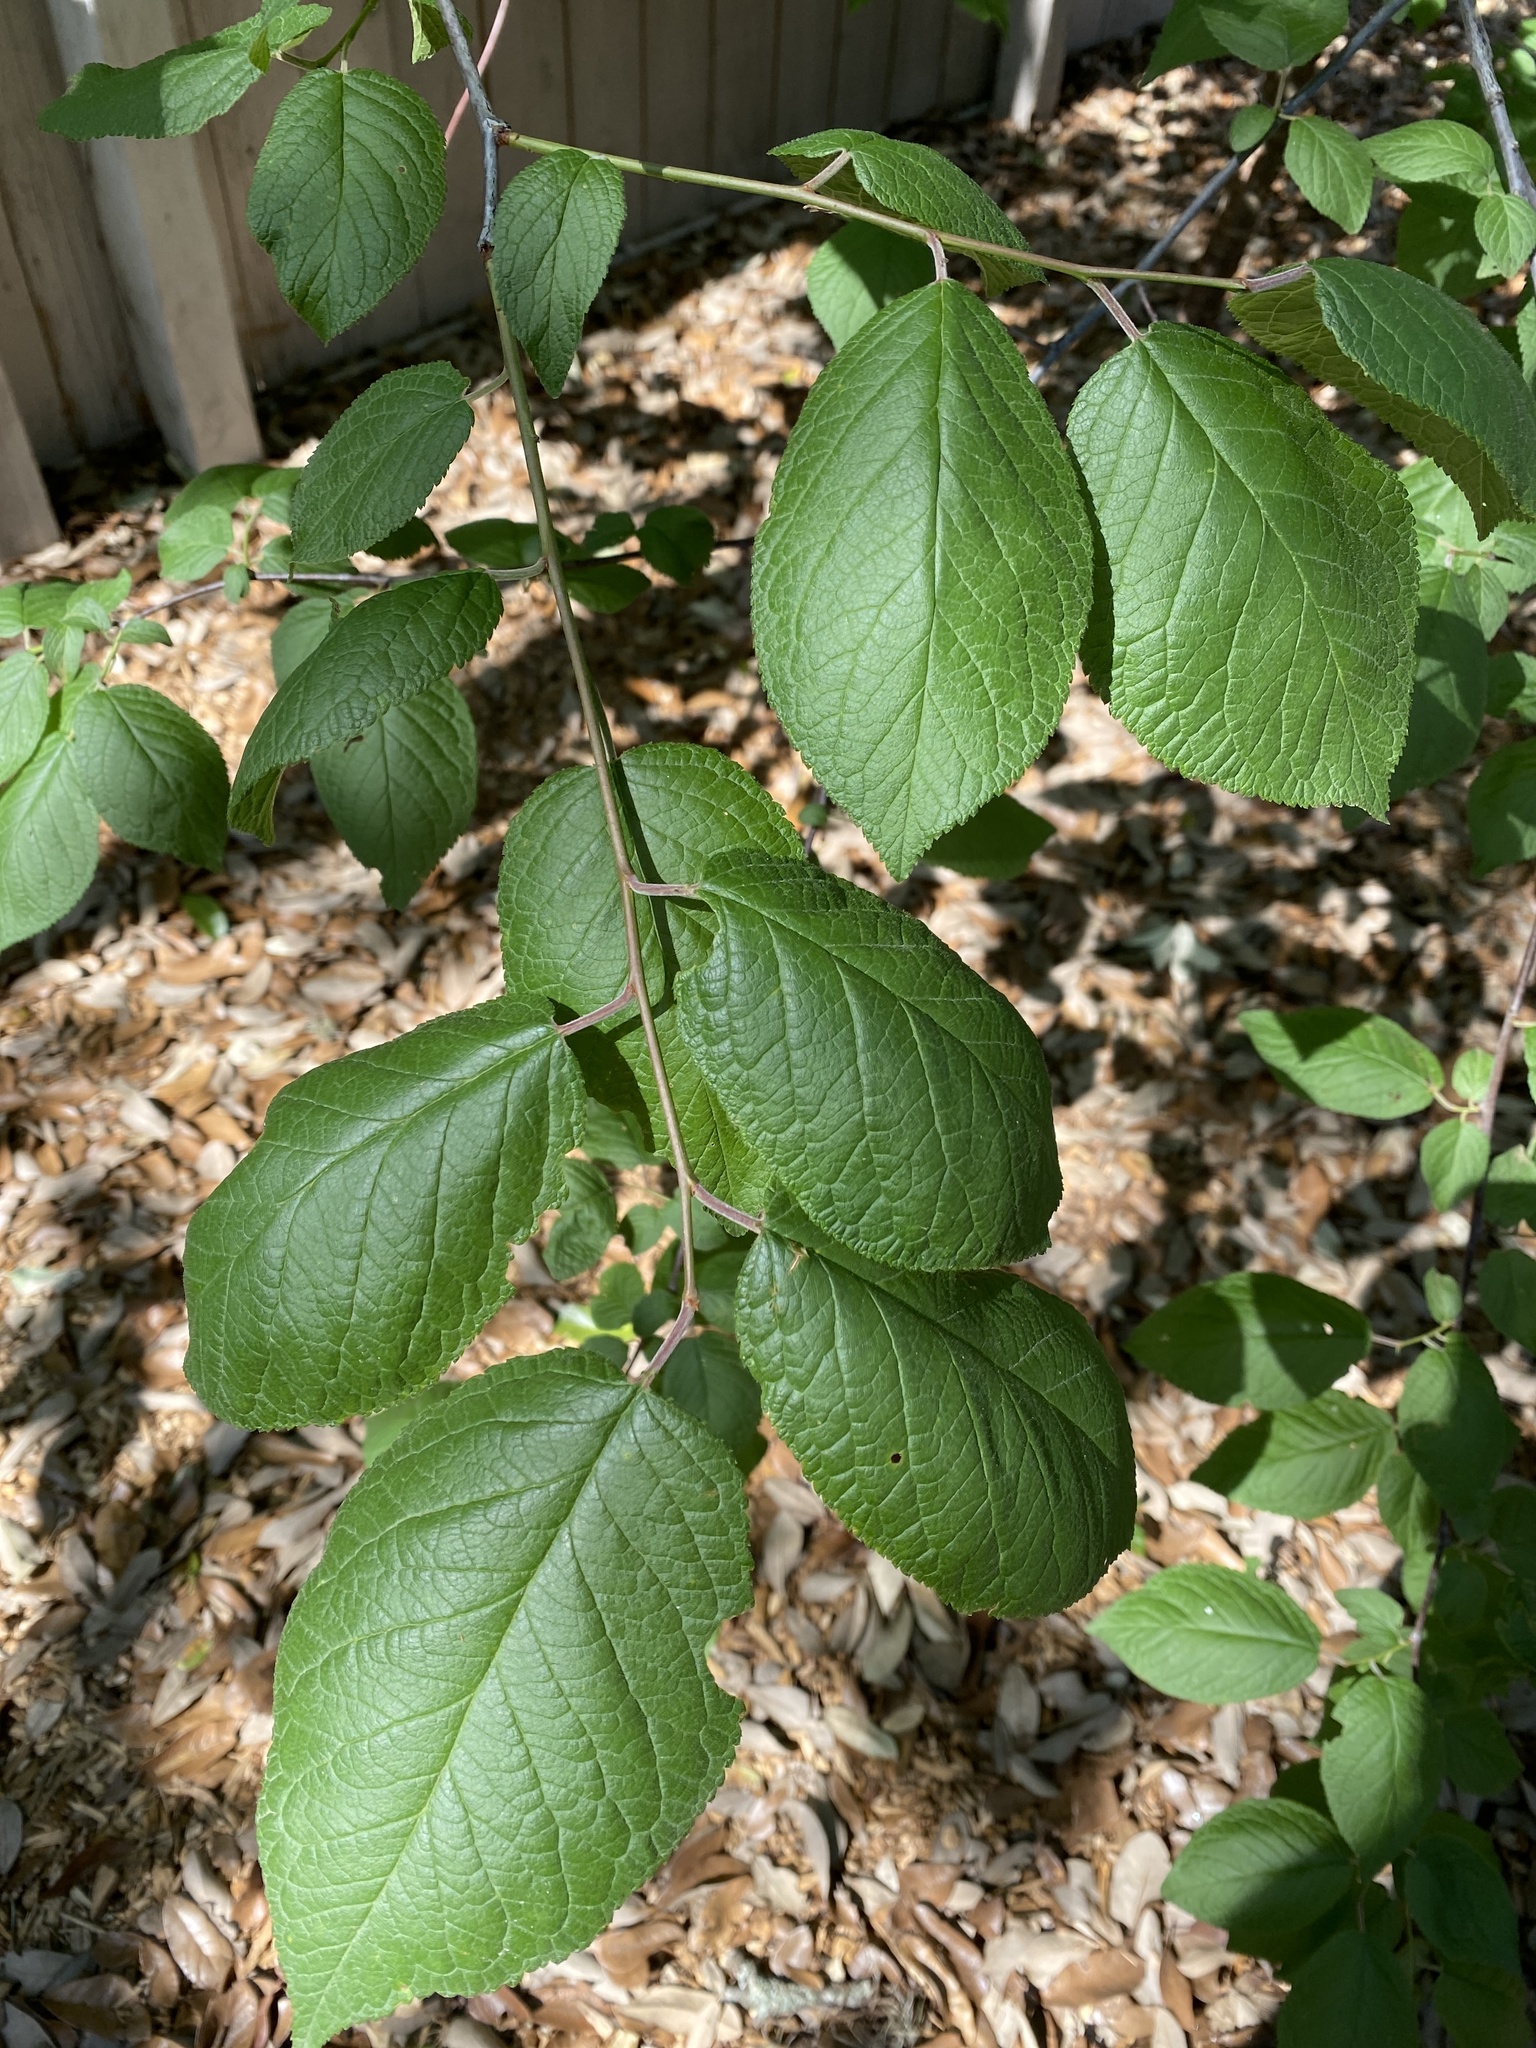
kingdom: Plantae
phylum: Tracheophyta
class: Magnoliopsida
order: Rosales
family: Rosaceae
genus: Prunus
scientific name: Prunus mexicana
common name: Mexican plum
